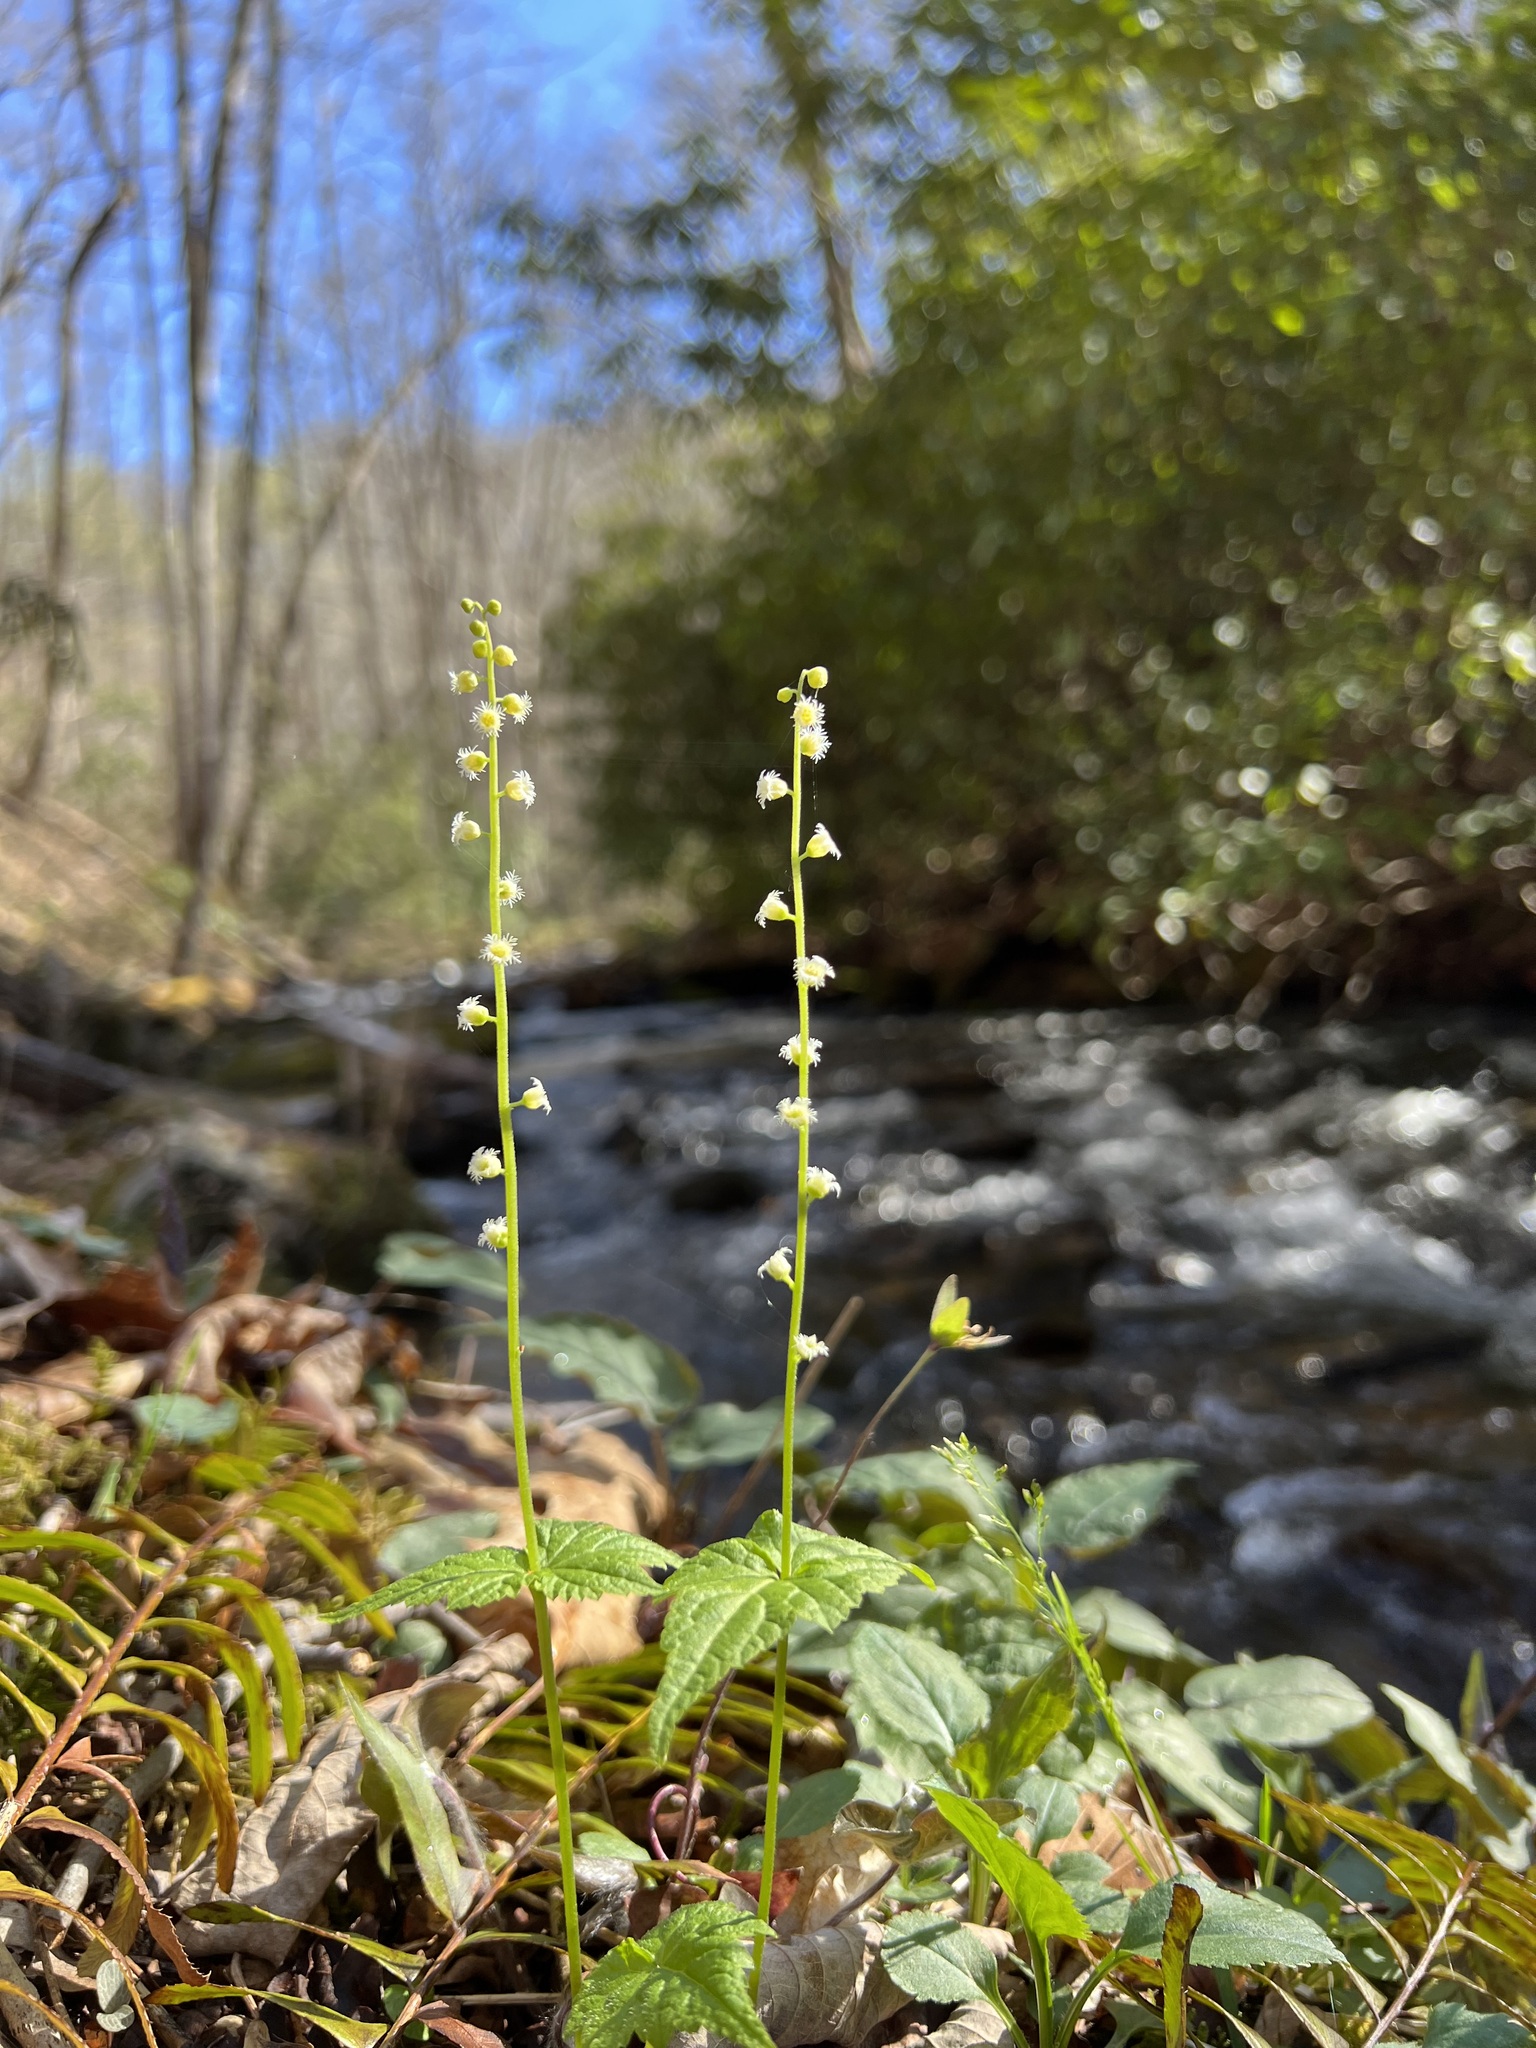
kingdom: Plantae
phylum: Tracheophyta
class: Magnoliopsida
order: Saxifragales
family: Saxifragaceae
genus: Mitella
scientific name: Mitella diphylla
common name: Coolwort
